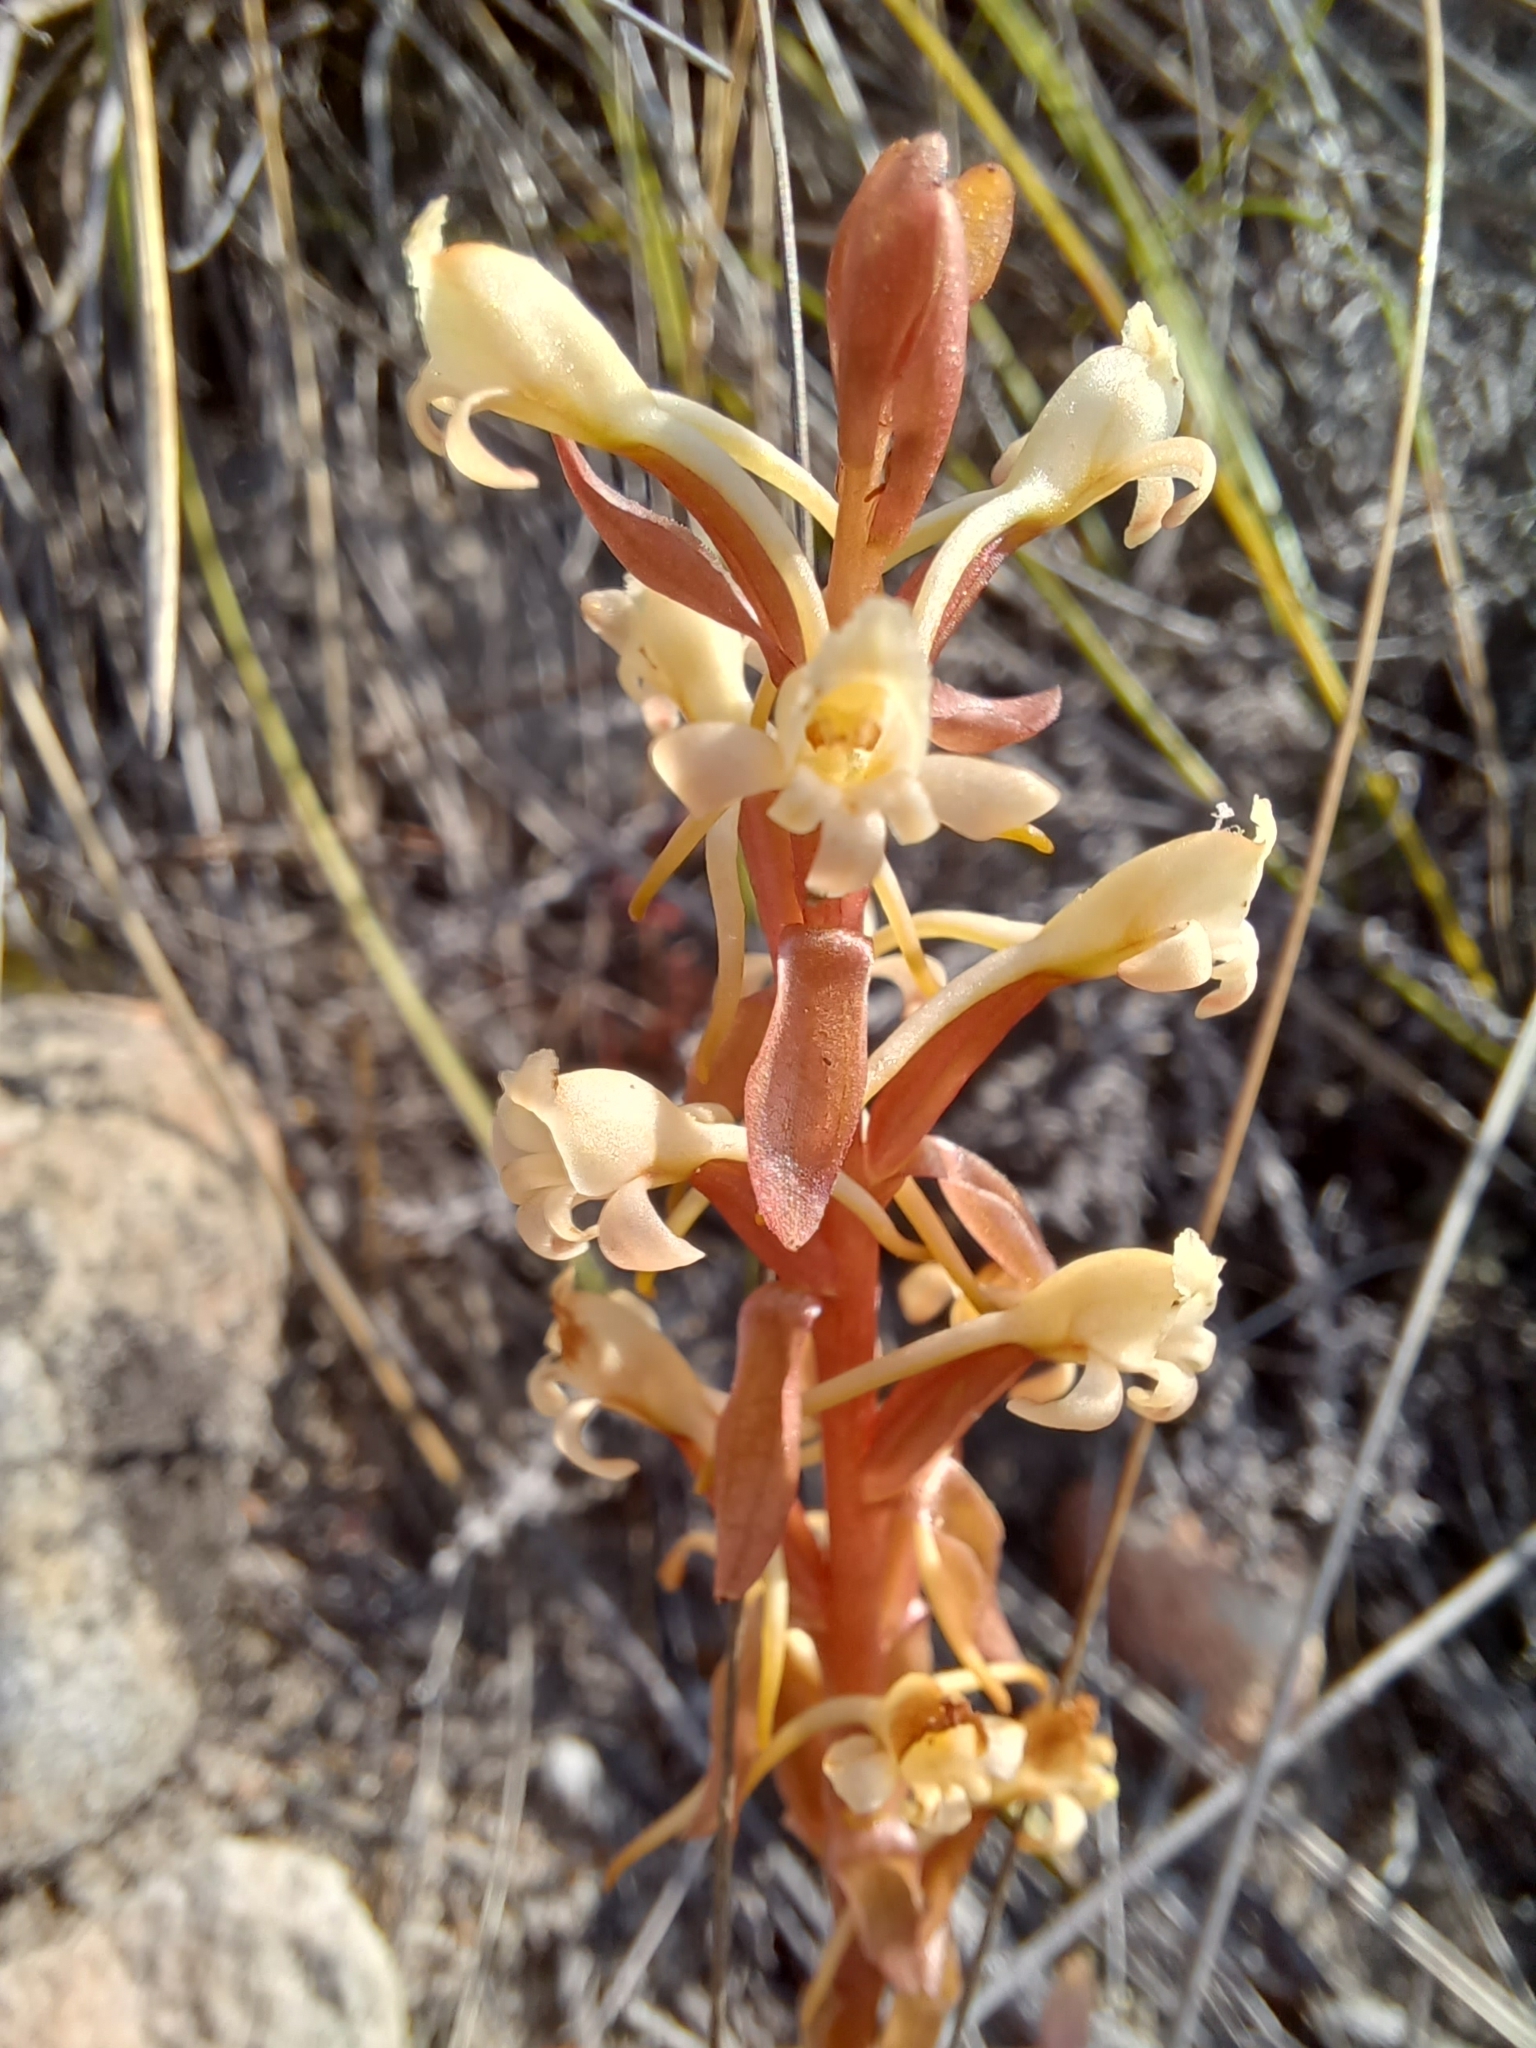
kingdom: Plantae
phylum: Tracheophyta
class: Liliopsida
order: Asparagales
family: Orchidaceae
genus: Satyrium
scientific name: Satyrium humile
